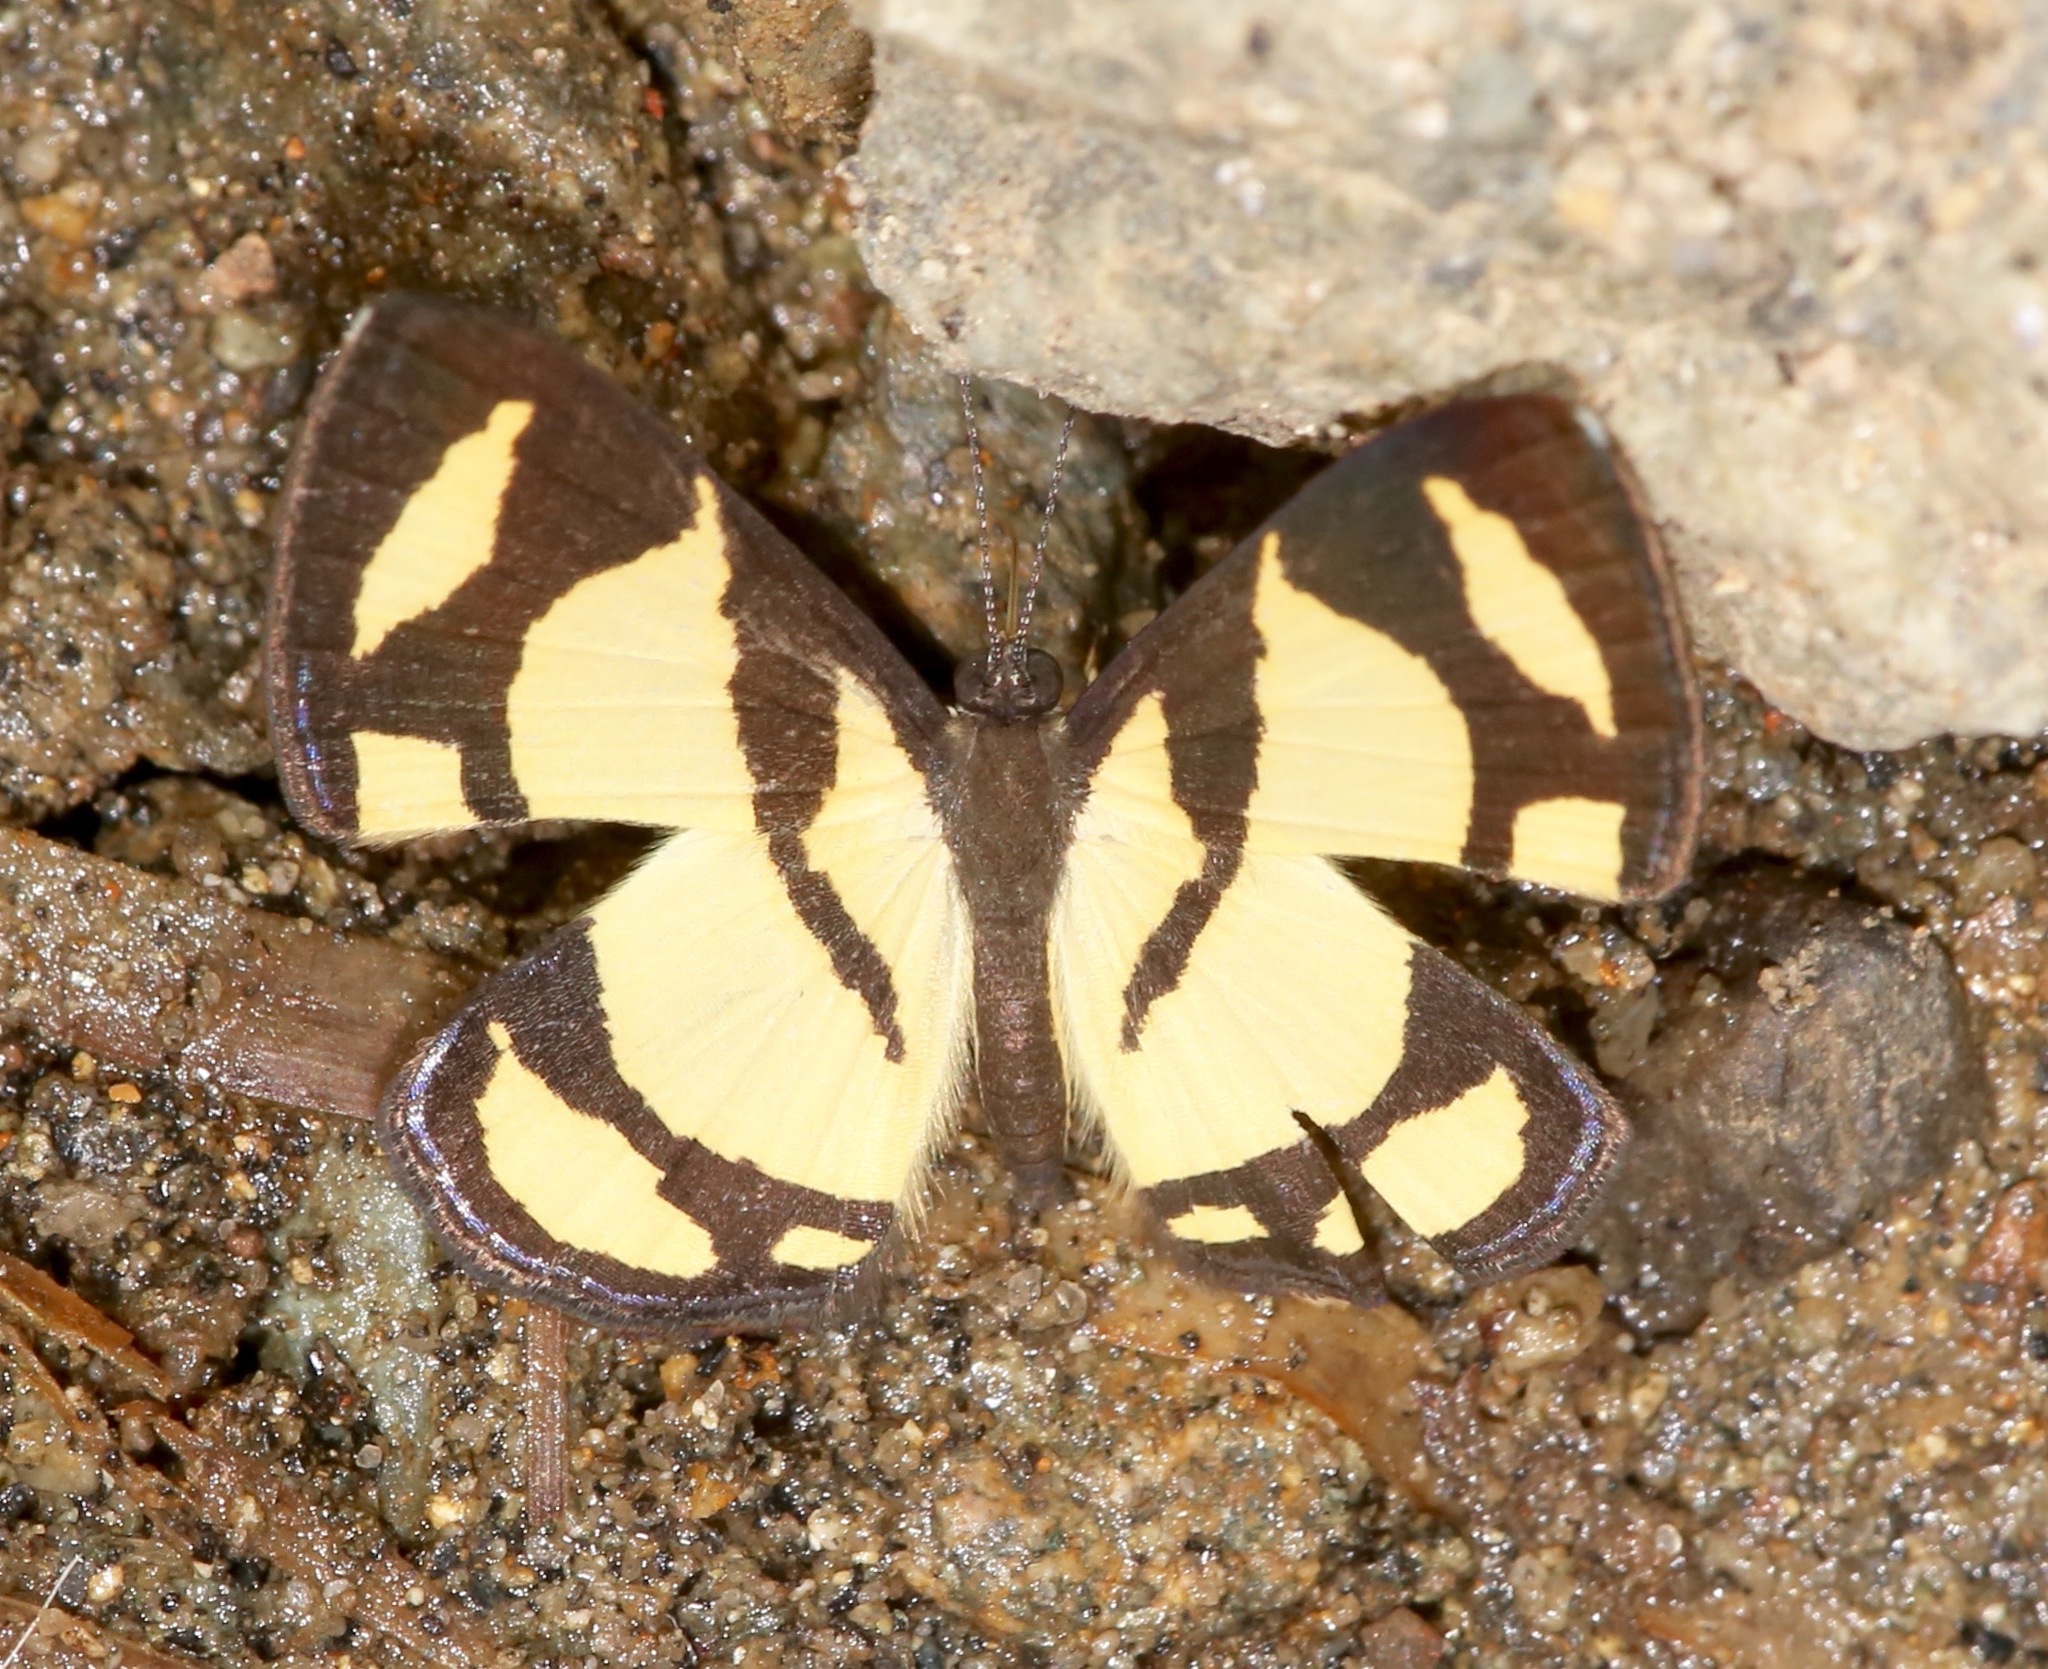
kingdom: Animalia
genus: Baeotis
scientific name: Baeotis zonata
